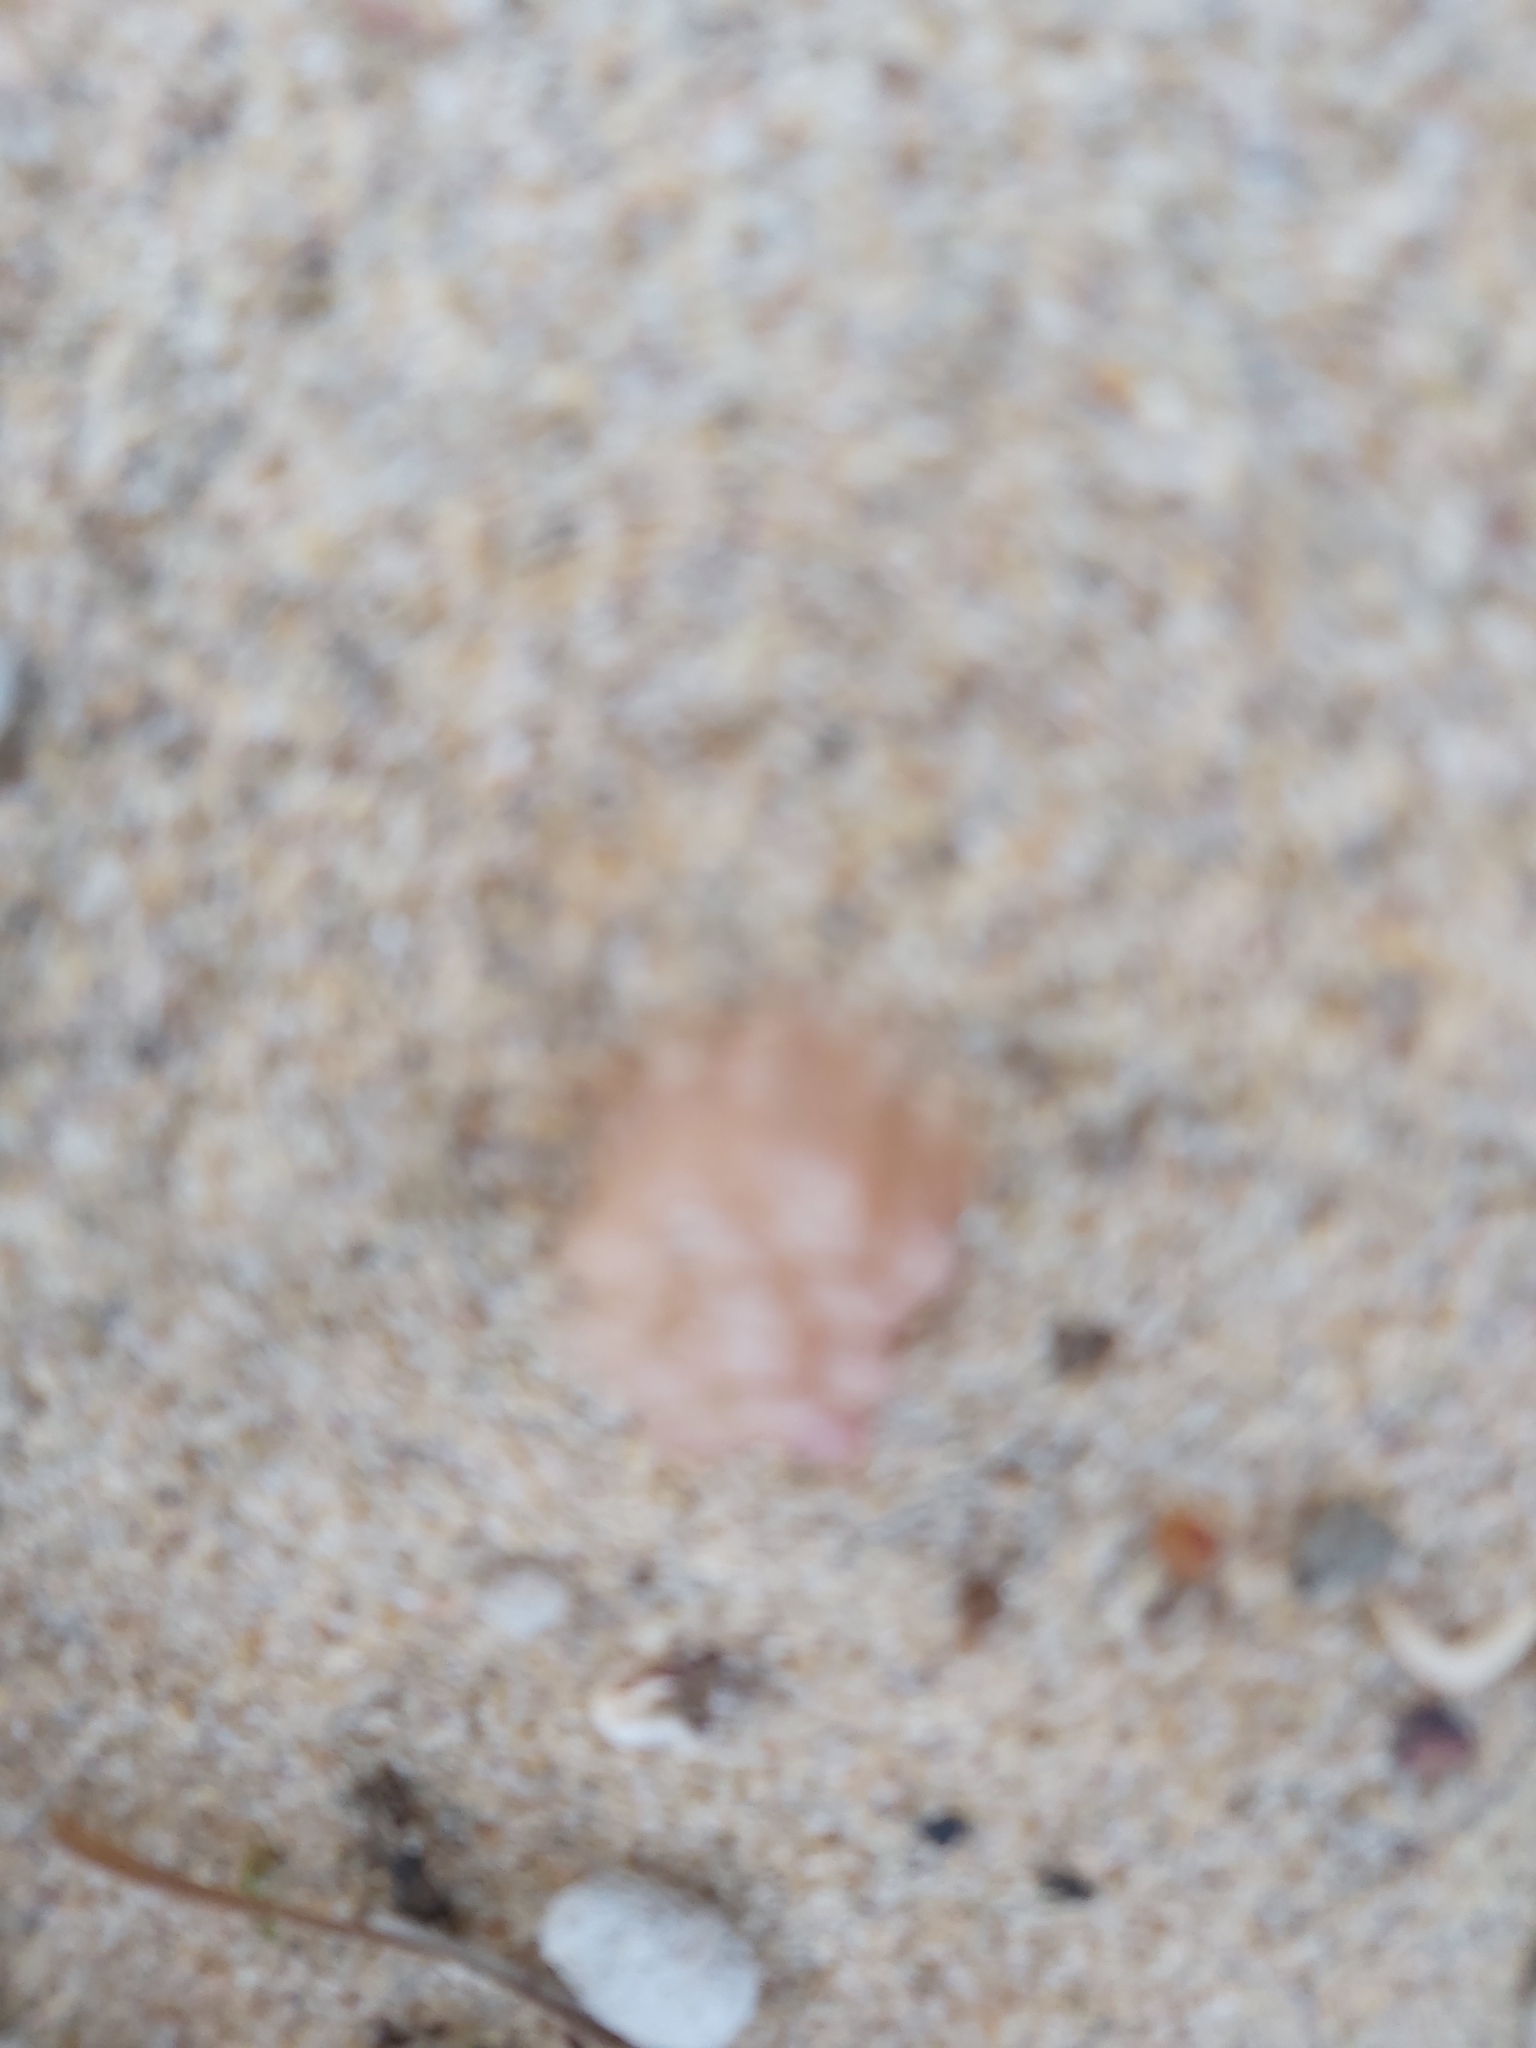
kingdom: Animalia
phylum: Mollusca
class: Gastropoda
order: Neogastropoda
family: Muricidae
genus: Dicathais
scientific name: Dicathais orbita
